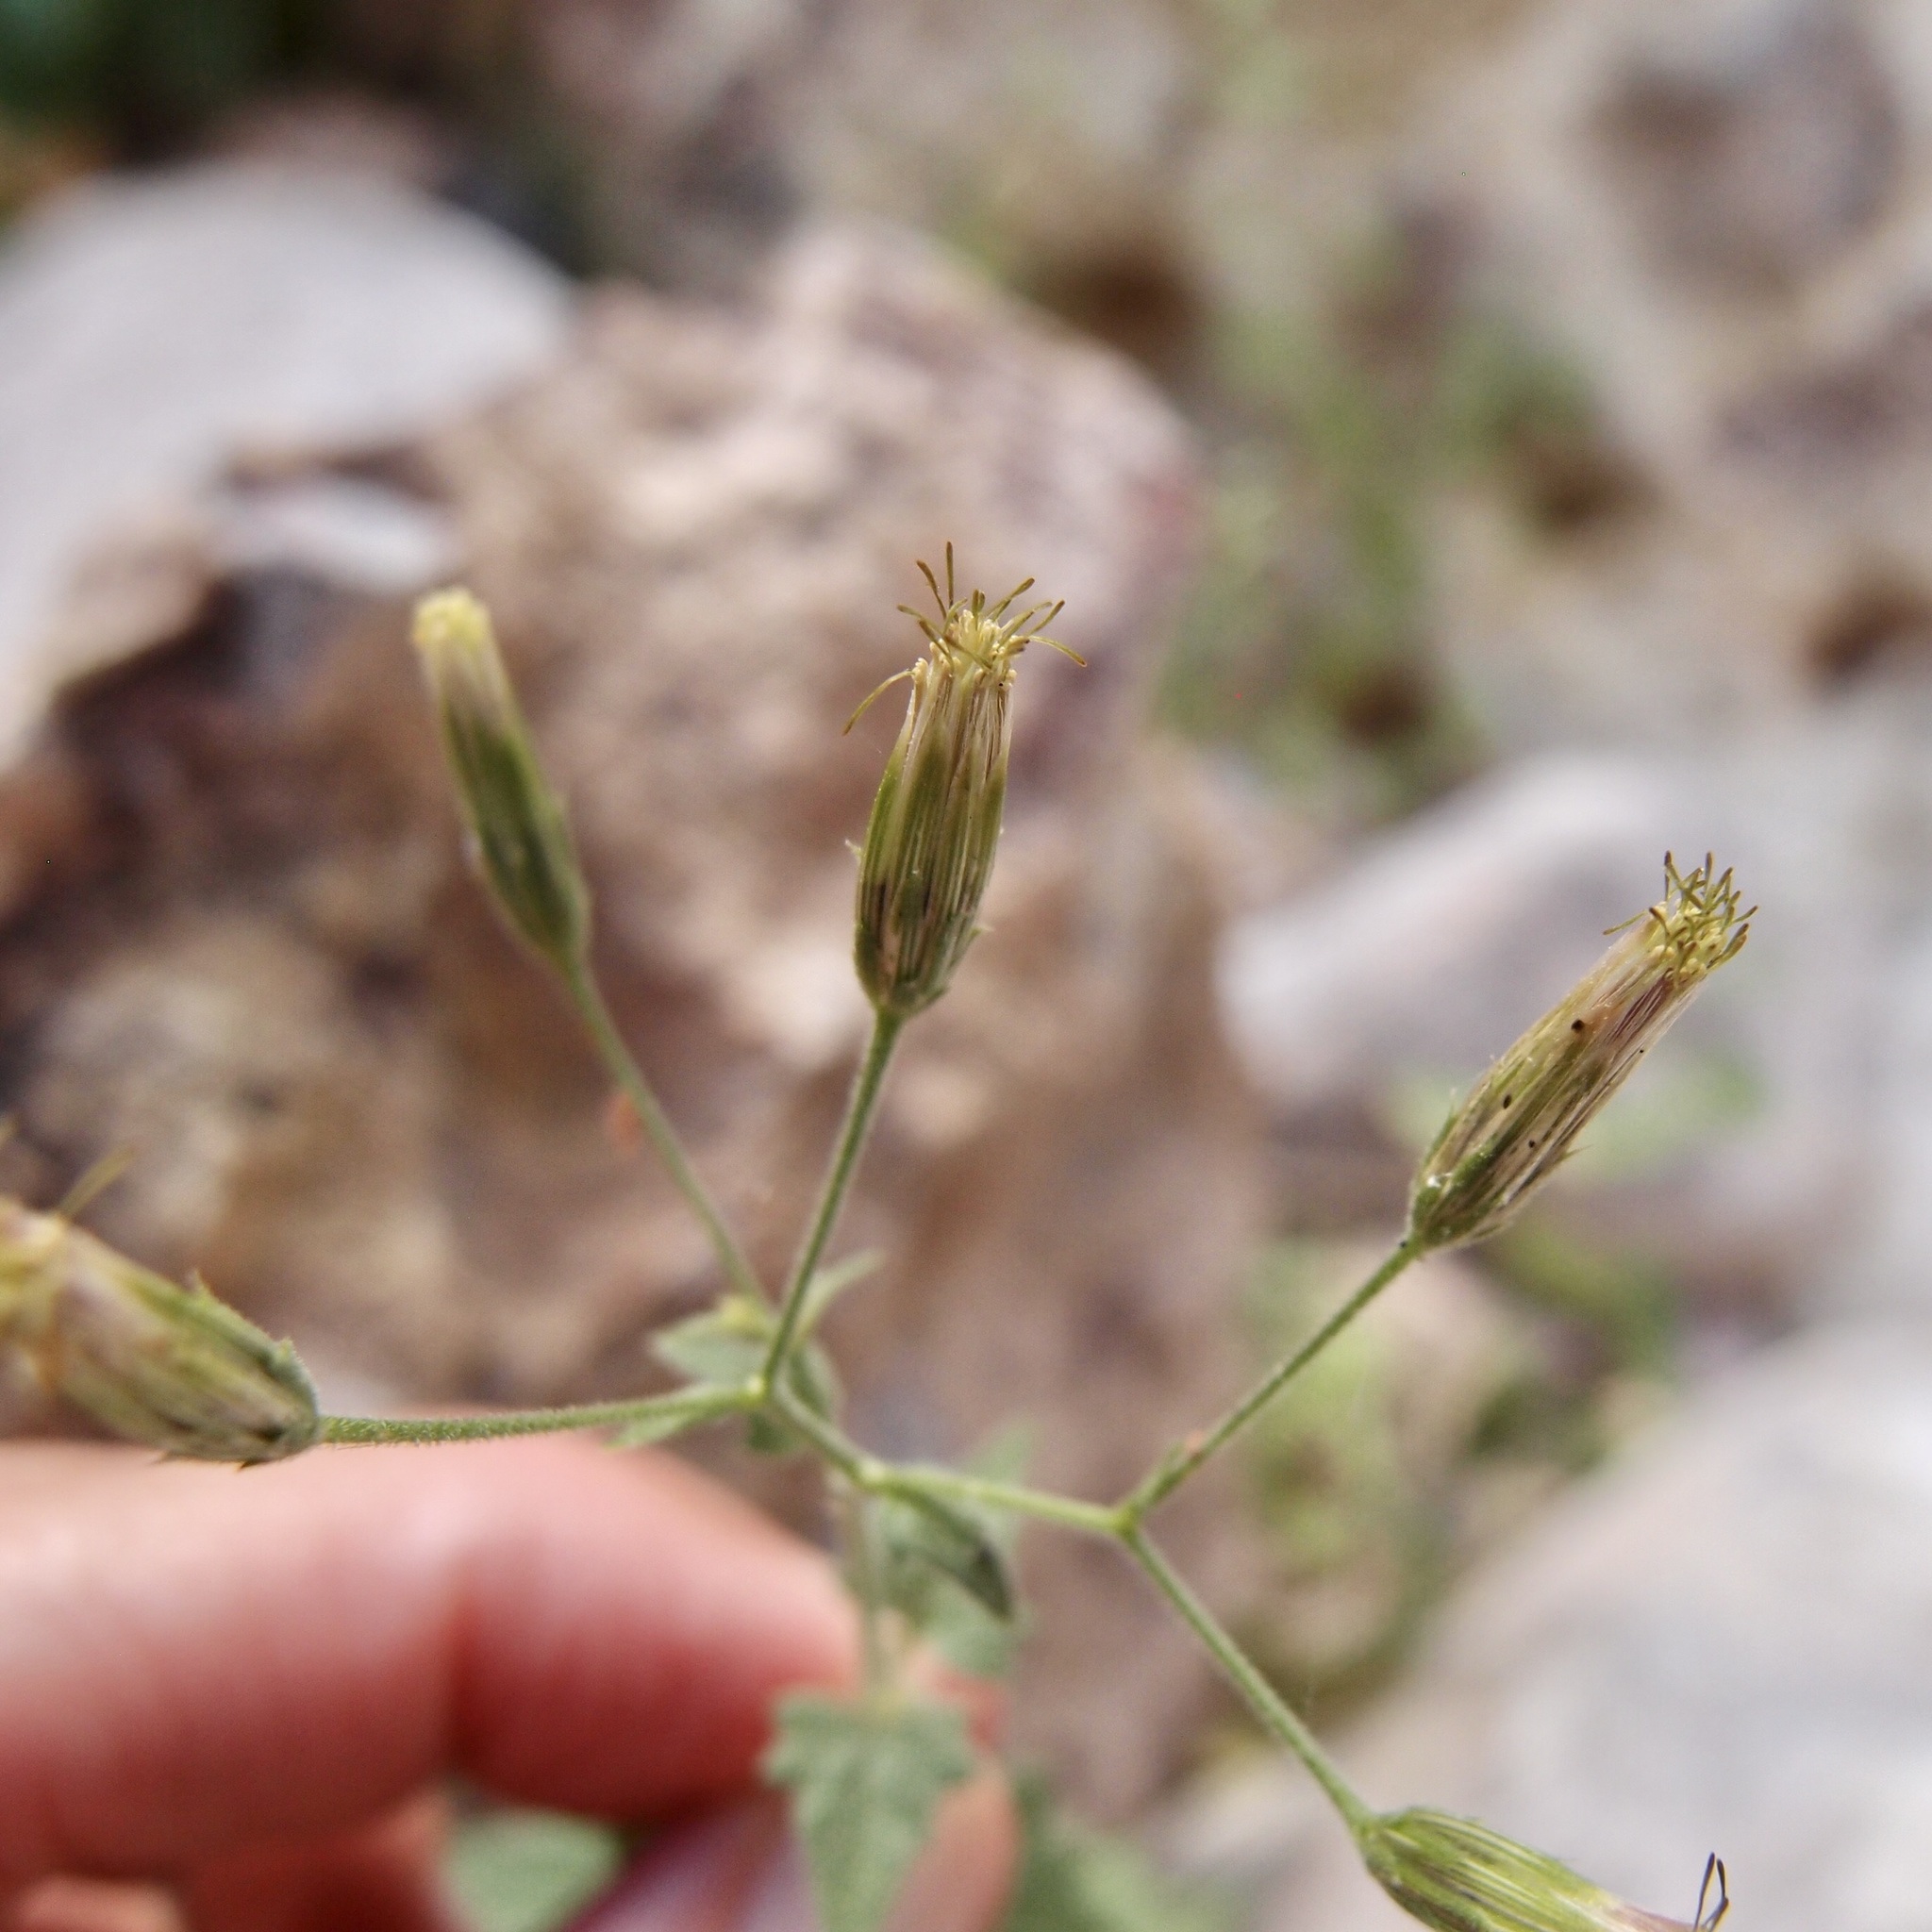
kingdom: Plantae
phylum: Tracheophyta
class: Magnoliopsida
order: Asterales
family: Asteraceae
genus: Brickellia
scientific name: Brickellia coulteri
